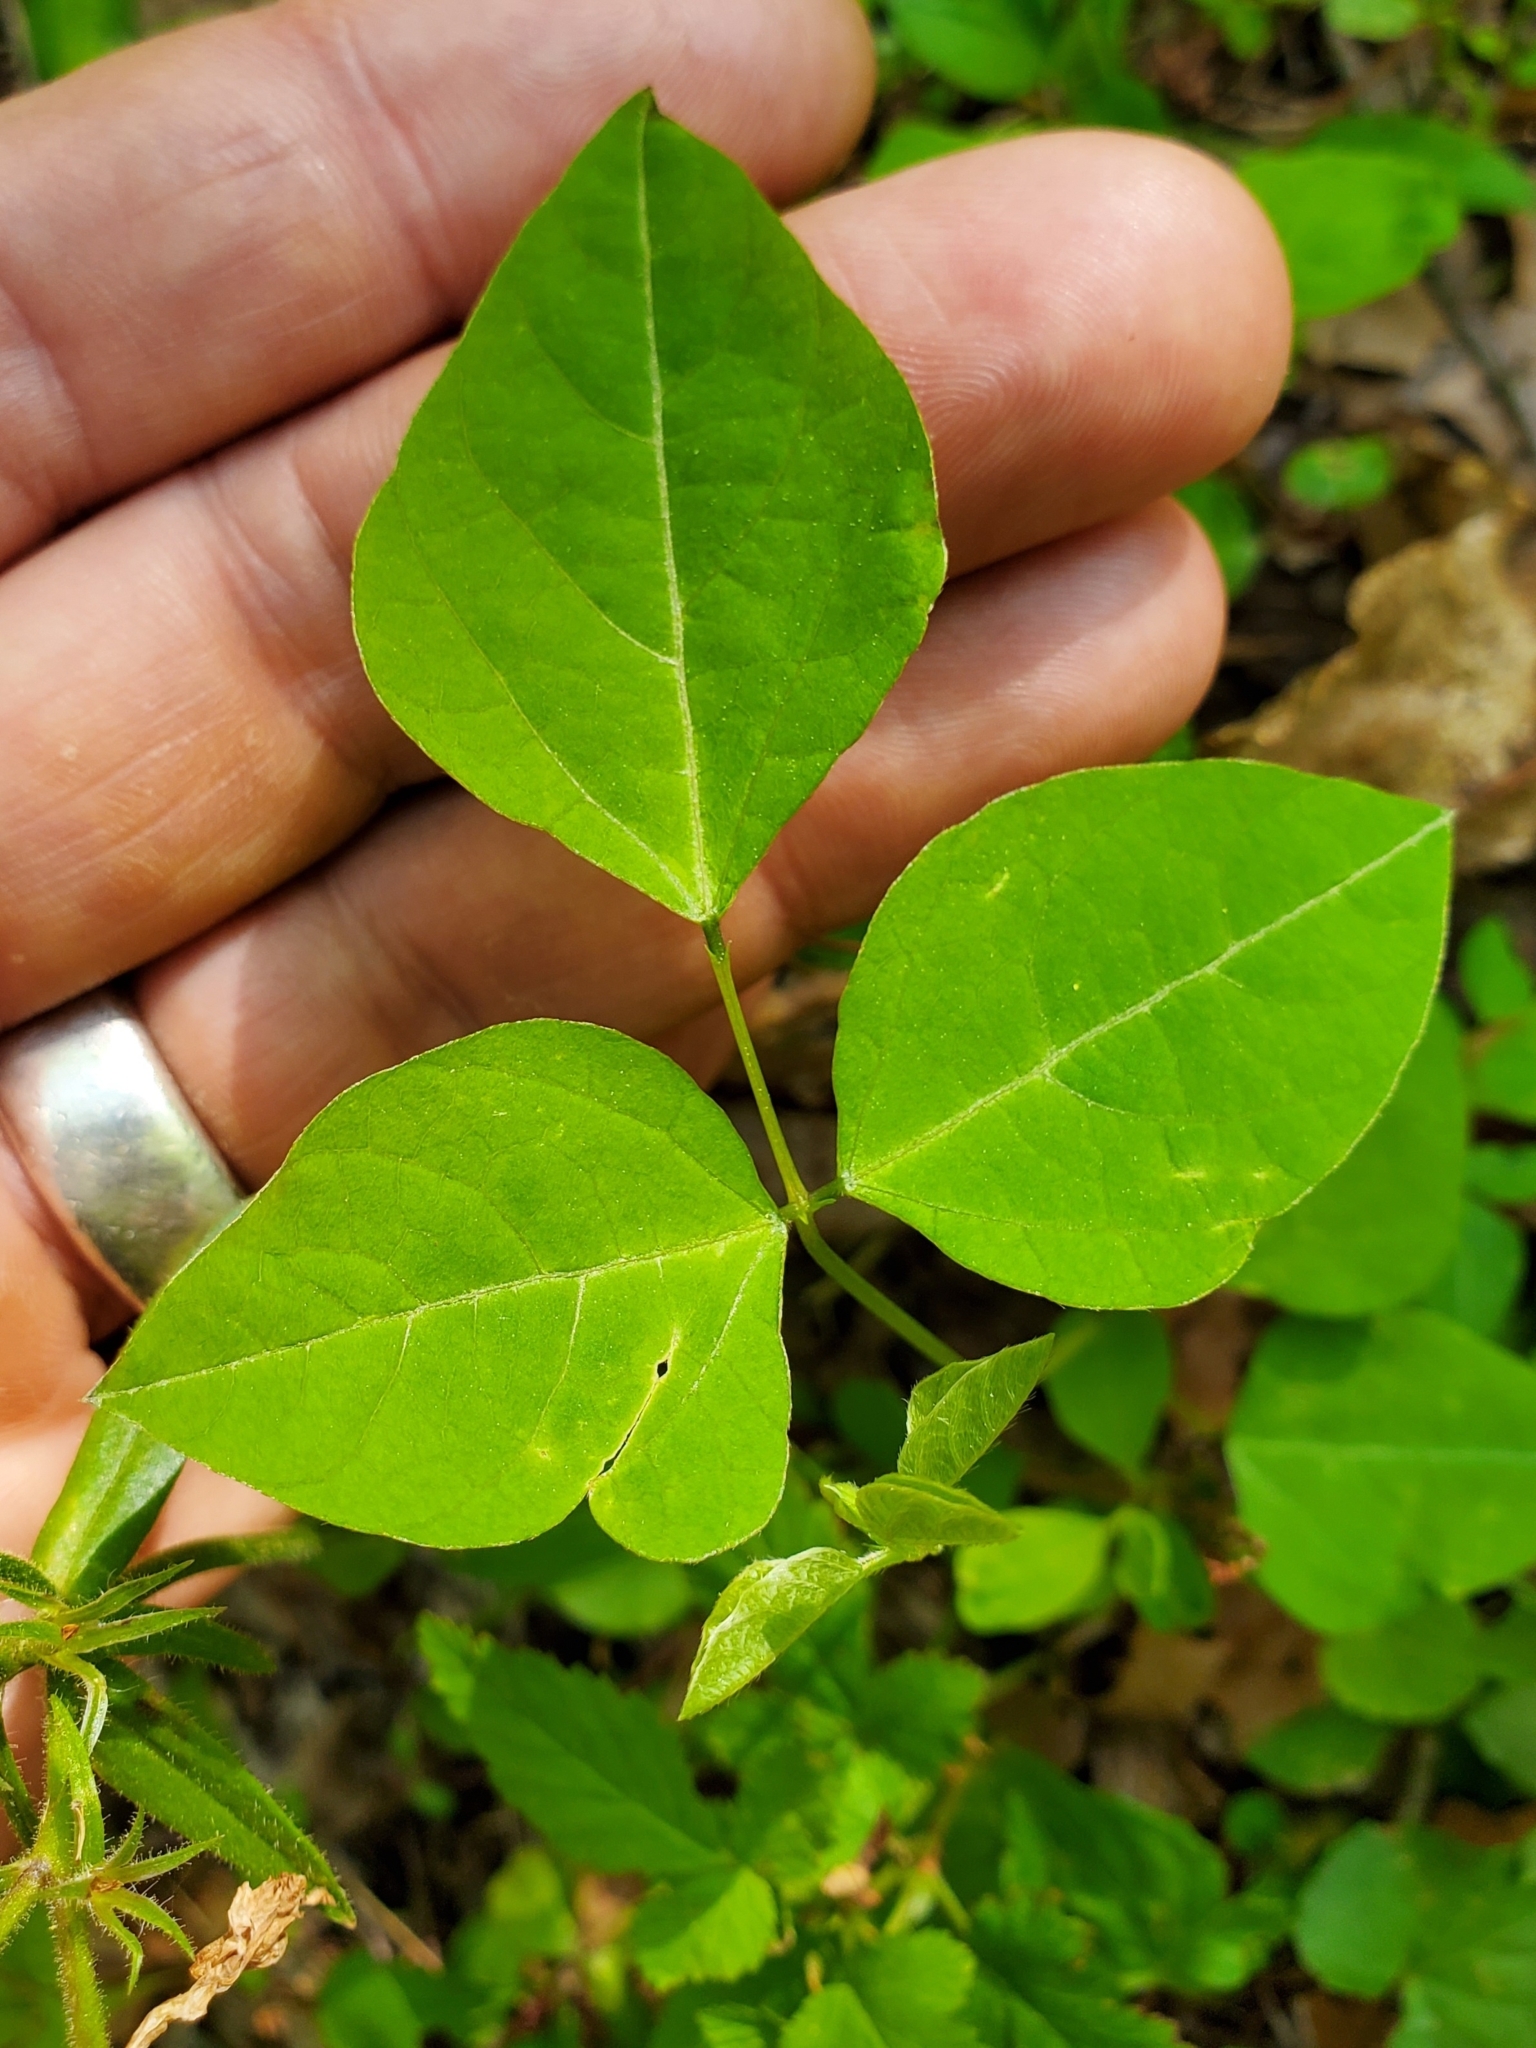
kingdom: Plantae
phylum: Tracheophyta
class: Magnoliopsida
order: Fabales
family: Fabaceae
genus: Amphicarpaea
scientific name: Amphicarpaea bracteata
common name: American hog peanut
